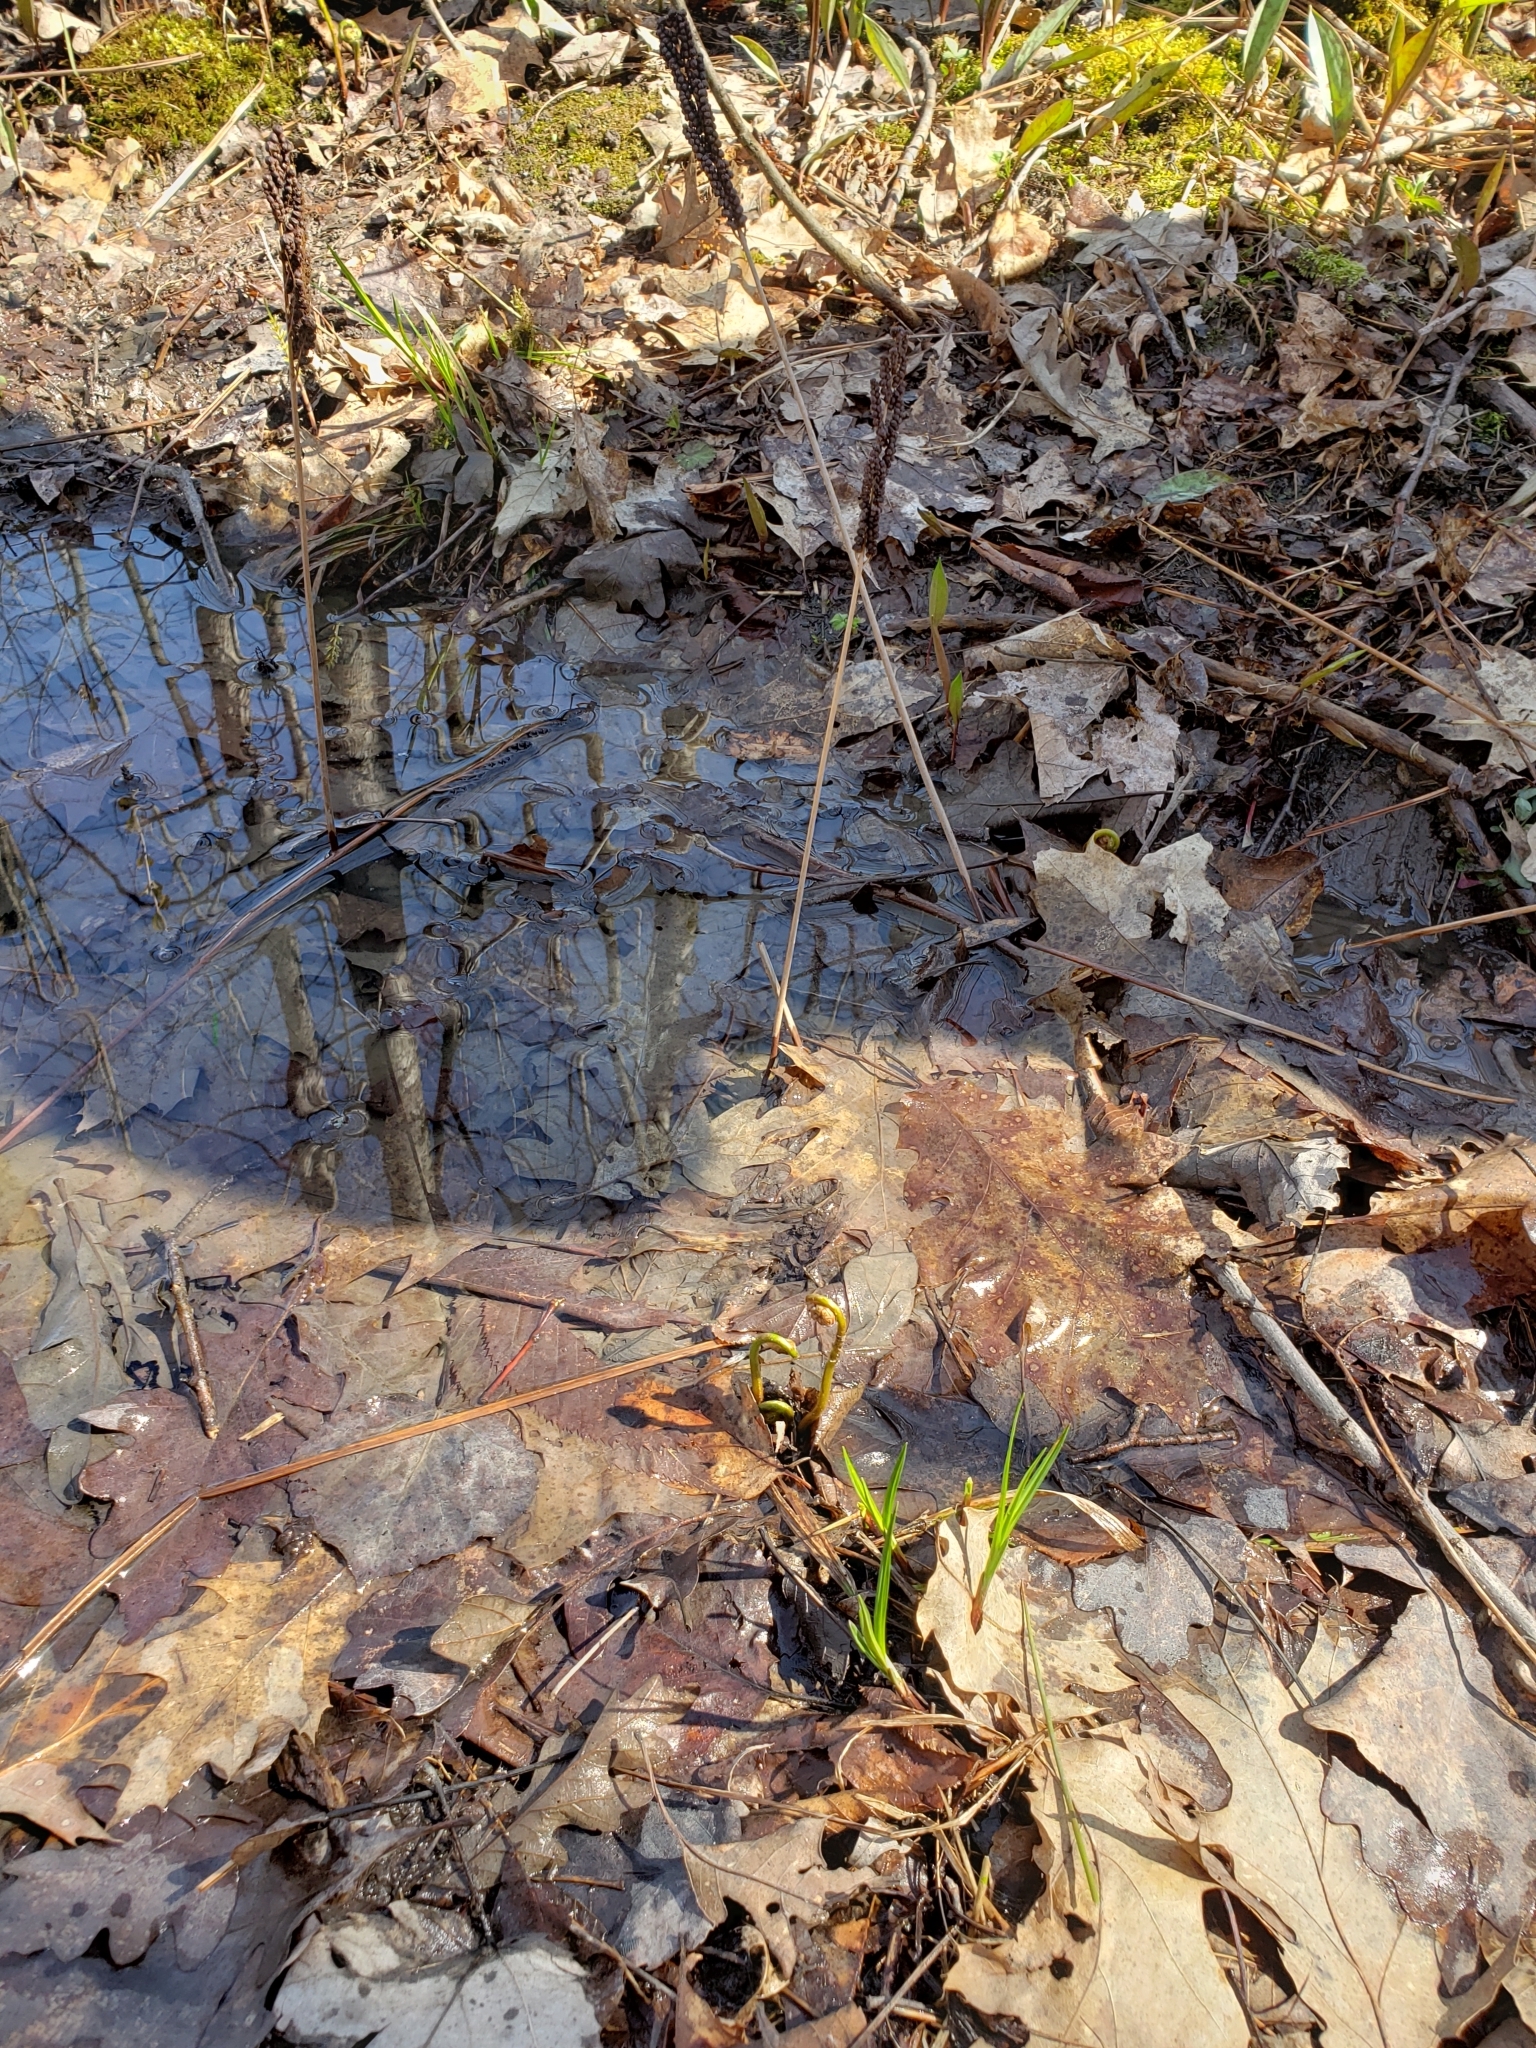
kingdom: Plantae
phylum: Tracheophyta
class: Polypodiopsida
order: Polypodiales
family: Onocleaceae
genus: Onoclea
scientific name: Onoclea sensibilis
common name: Sensitive fern
